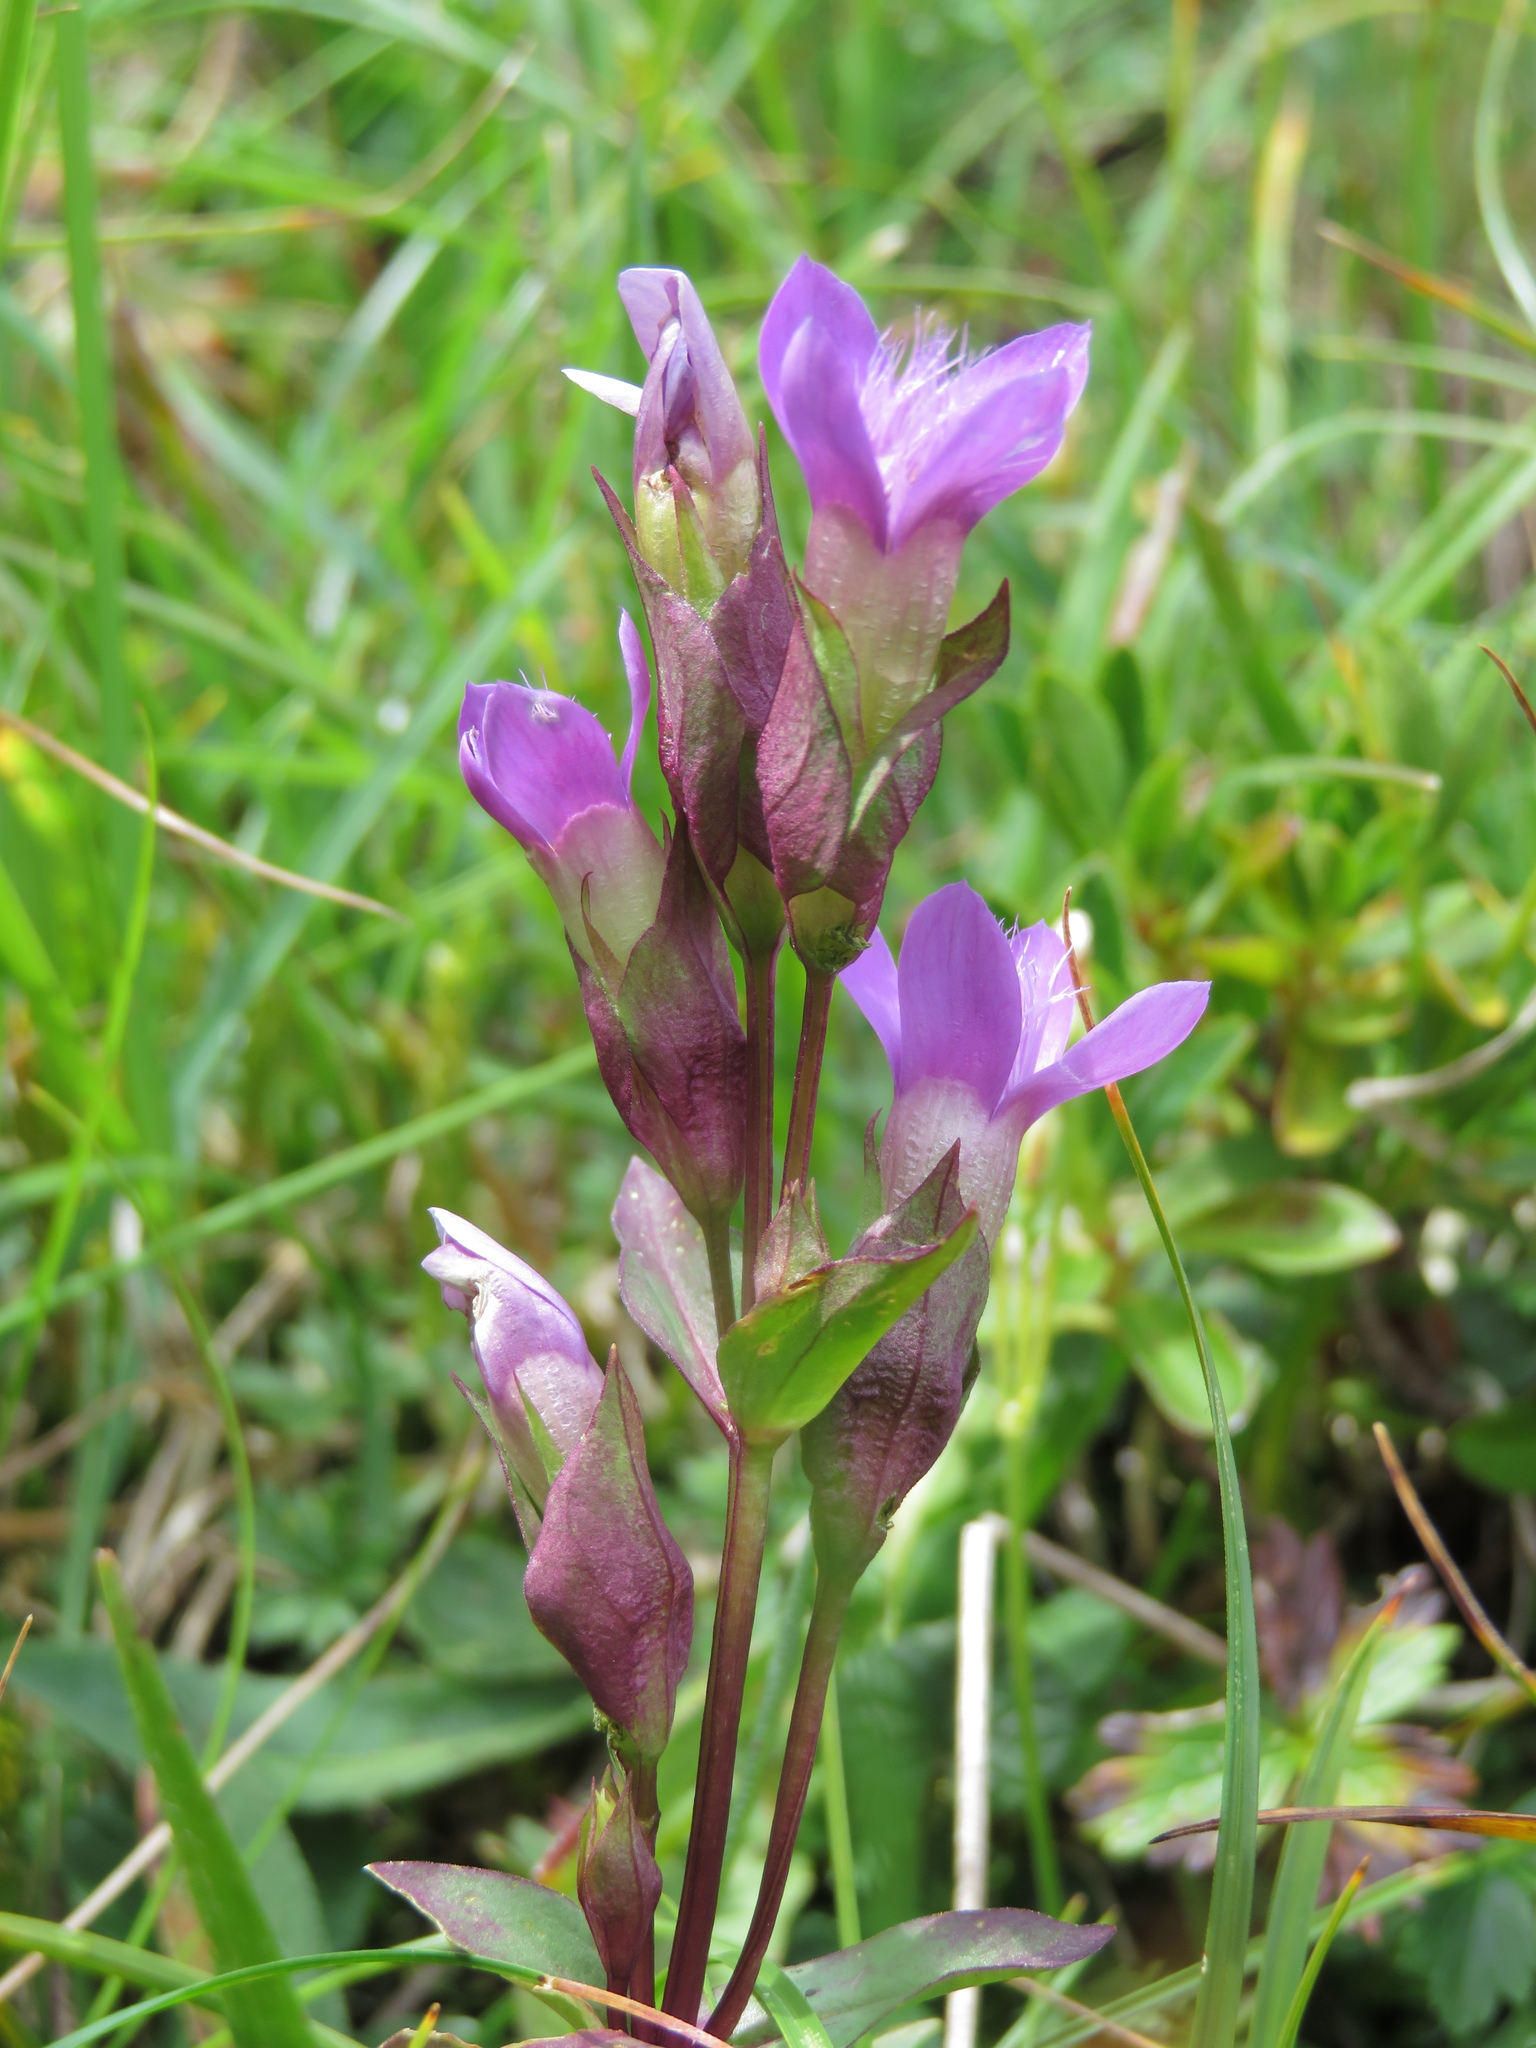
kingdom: Plantae
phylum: Tracheophyta
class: Magnoliopsida
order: Gentianales
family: Gentianaceae
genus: Gentianella
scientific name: Gentianella campestris
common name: Field gentian
